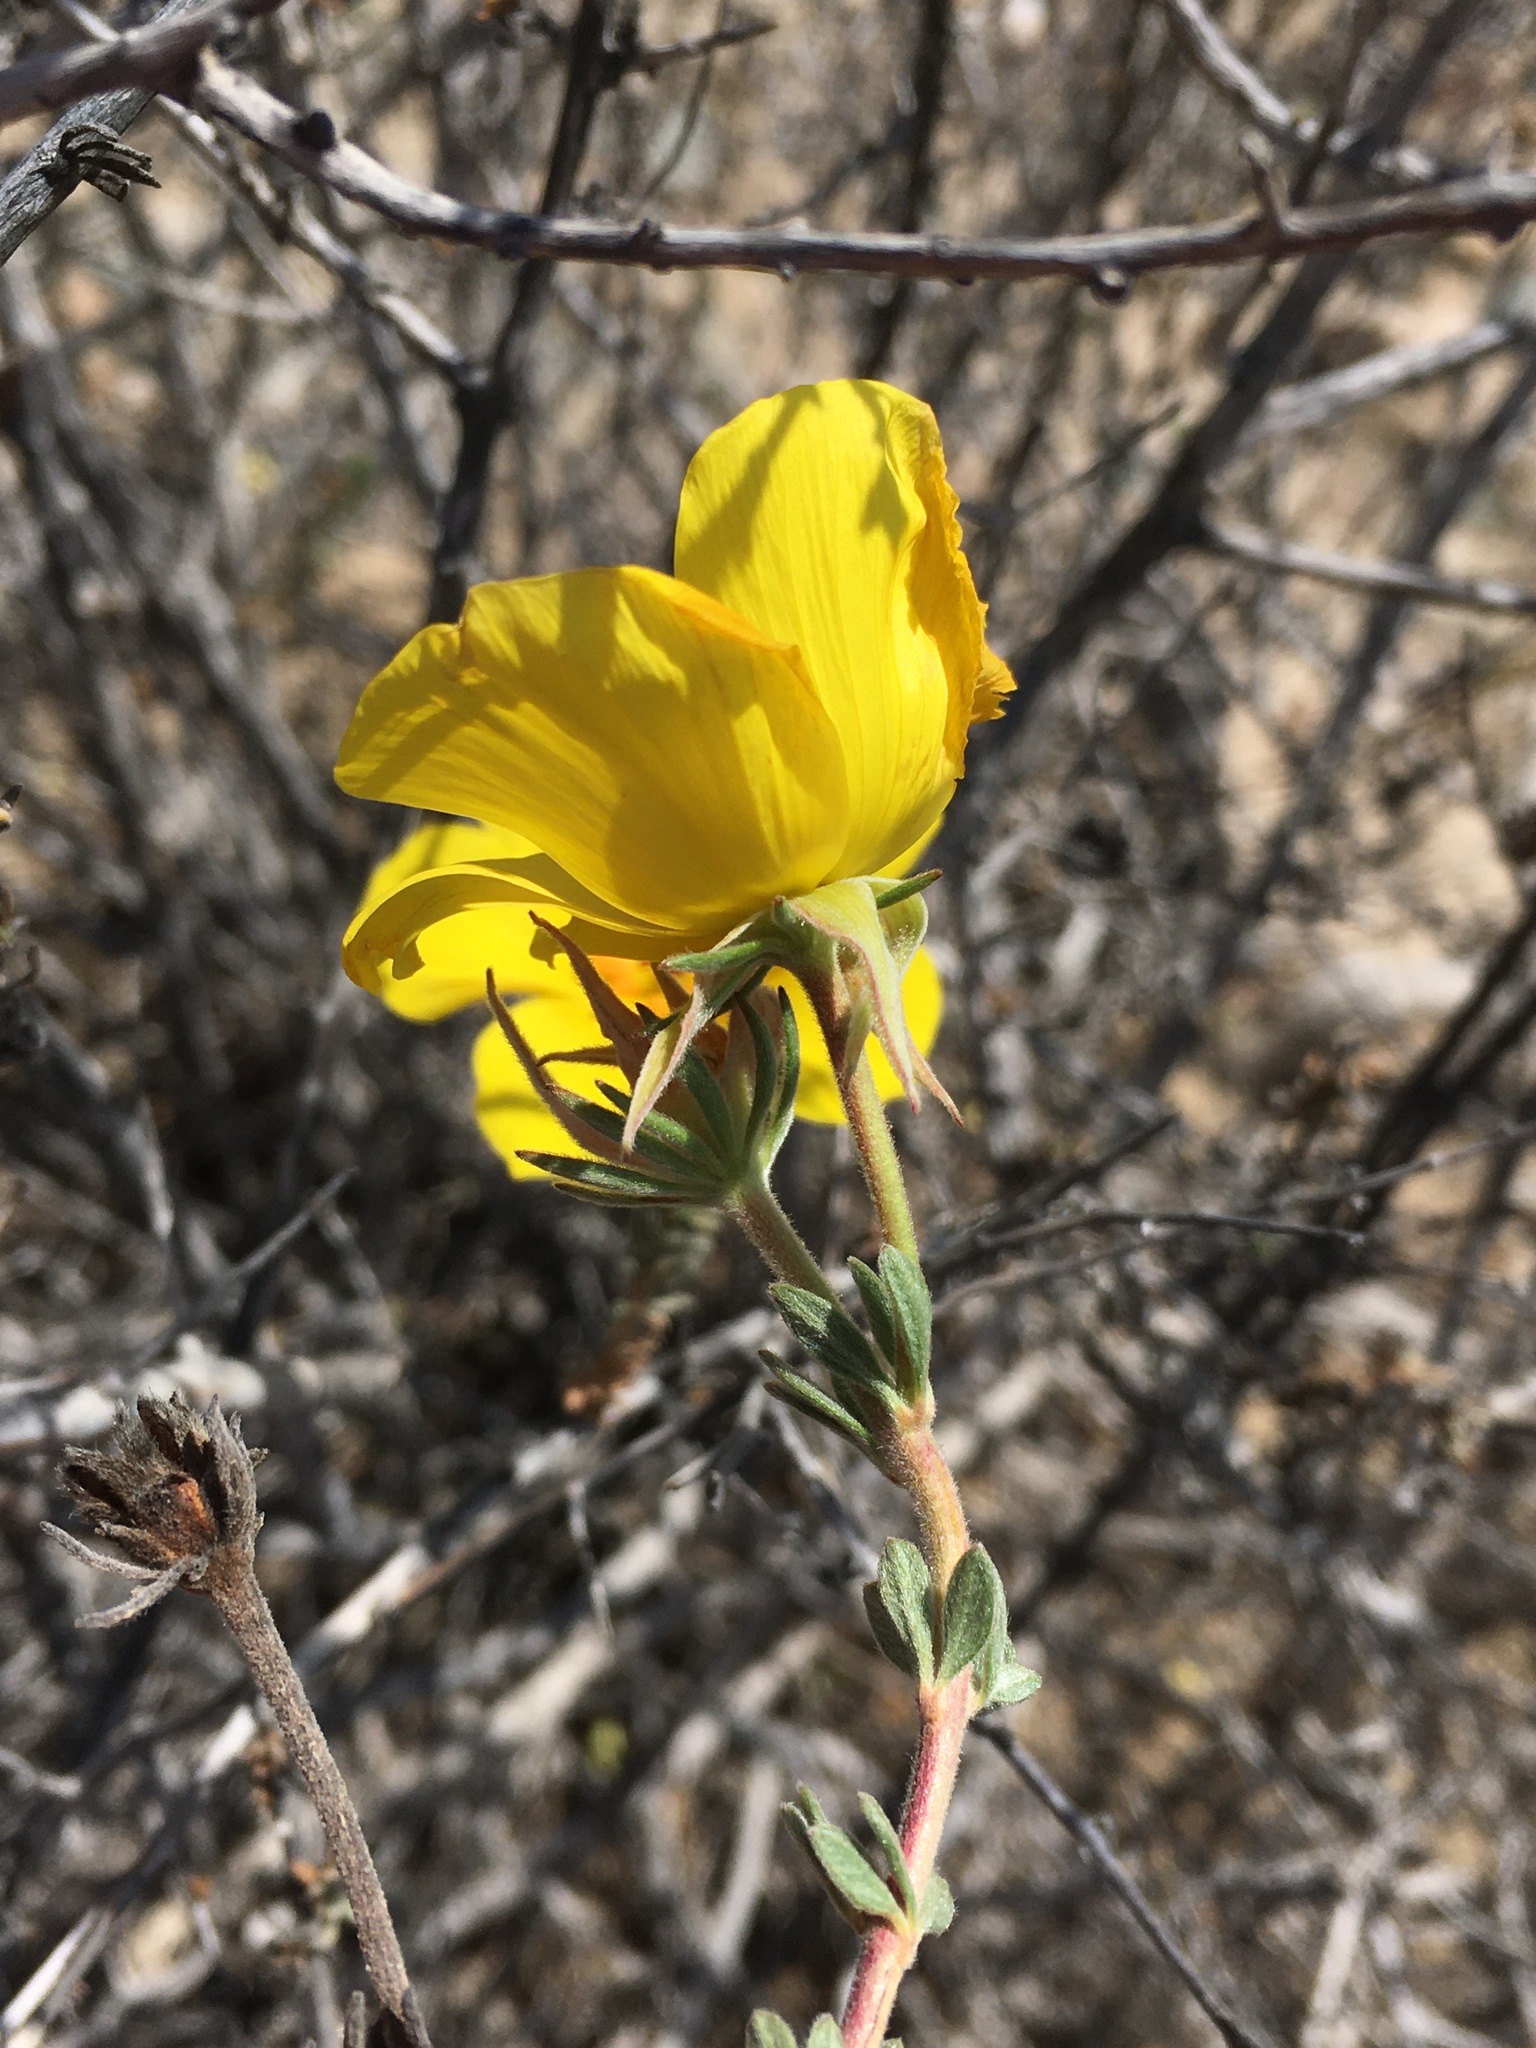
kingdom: Plantae
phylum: Tracheophyta
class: Magnoliopsida
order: Geraniales
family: Vivianiaceae
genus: Balbisia
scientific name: Balbisia peduncularis
